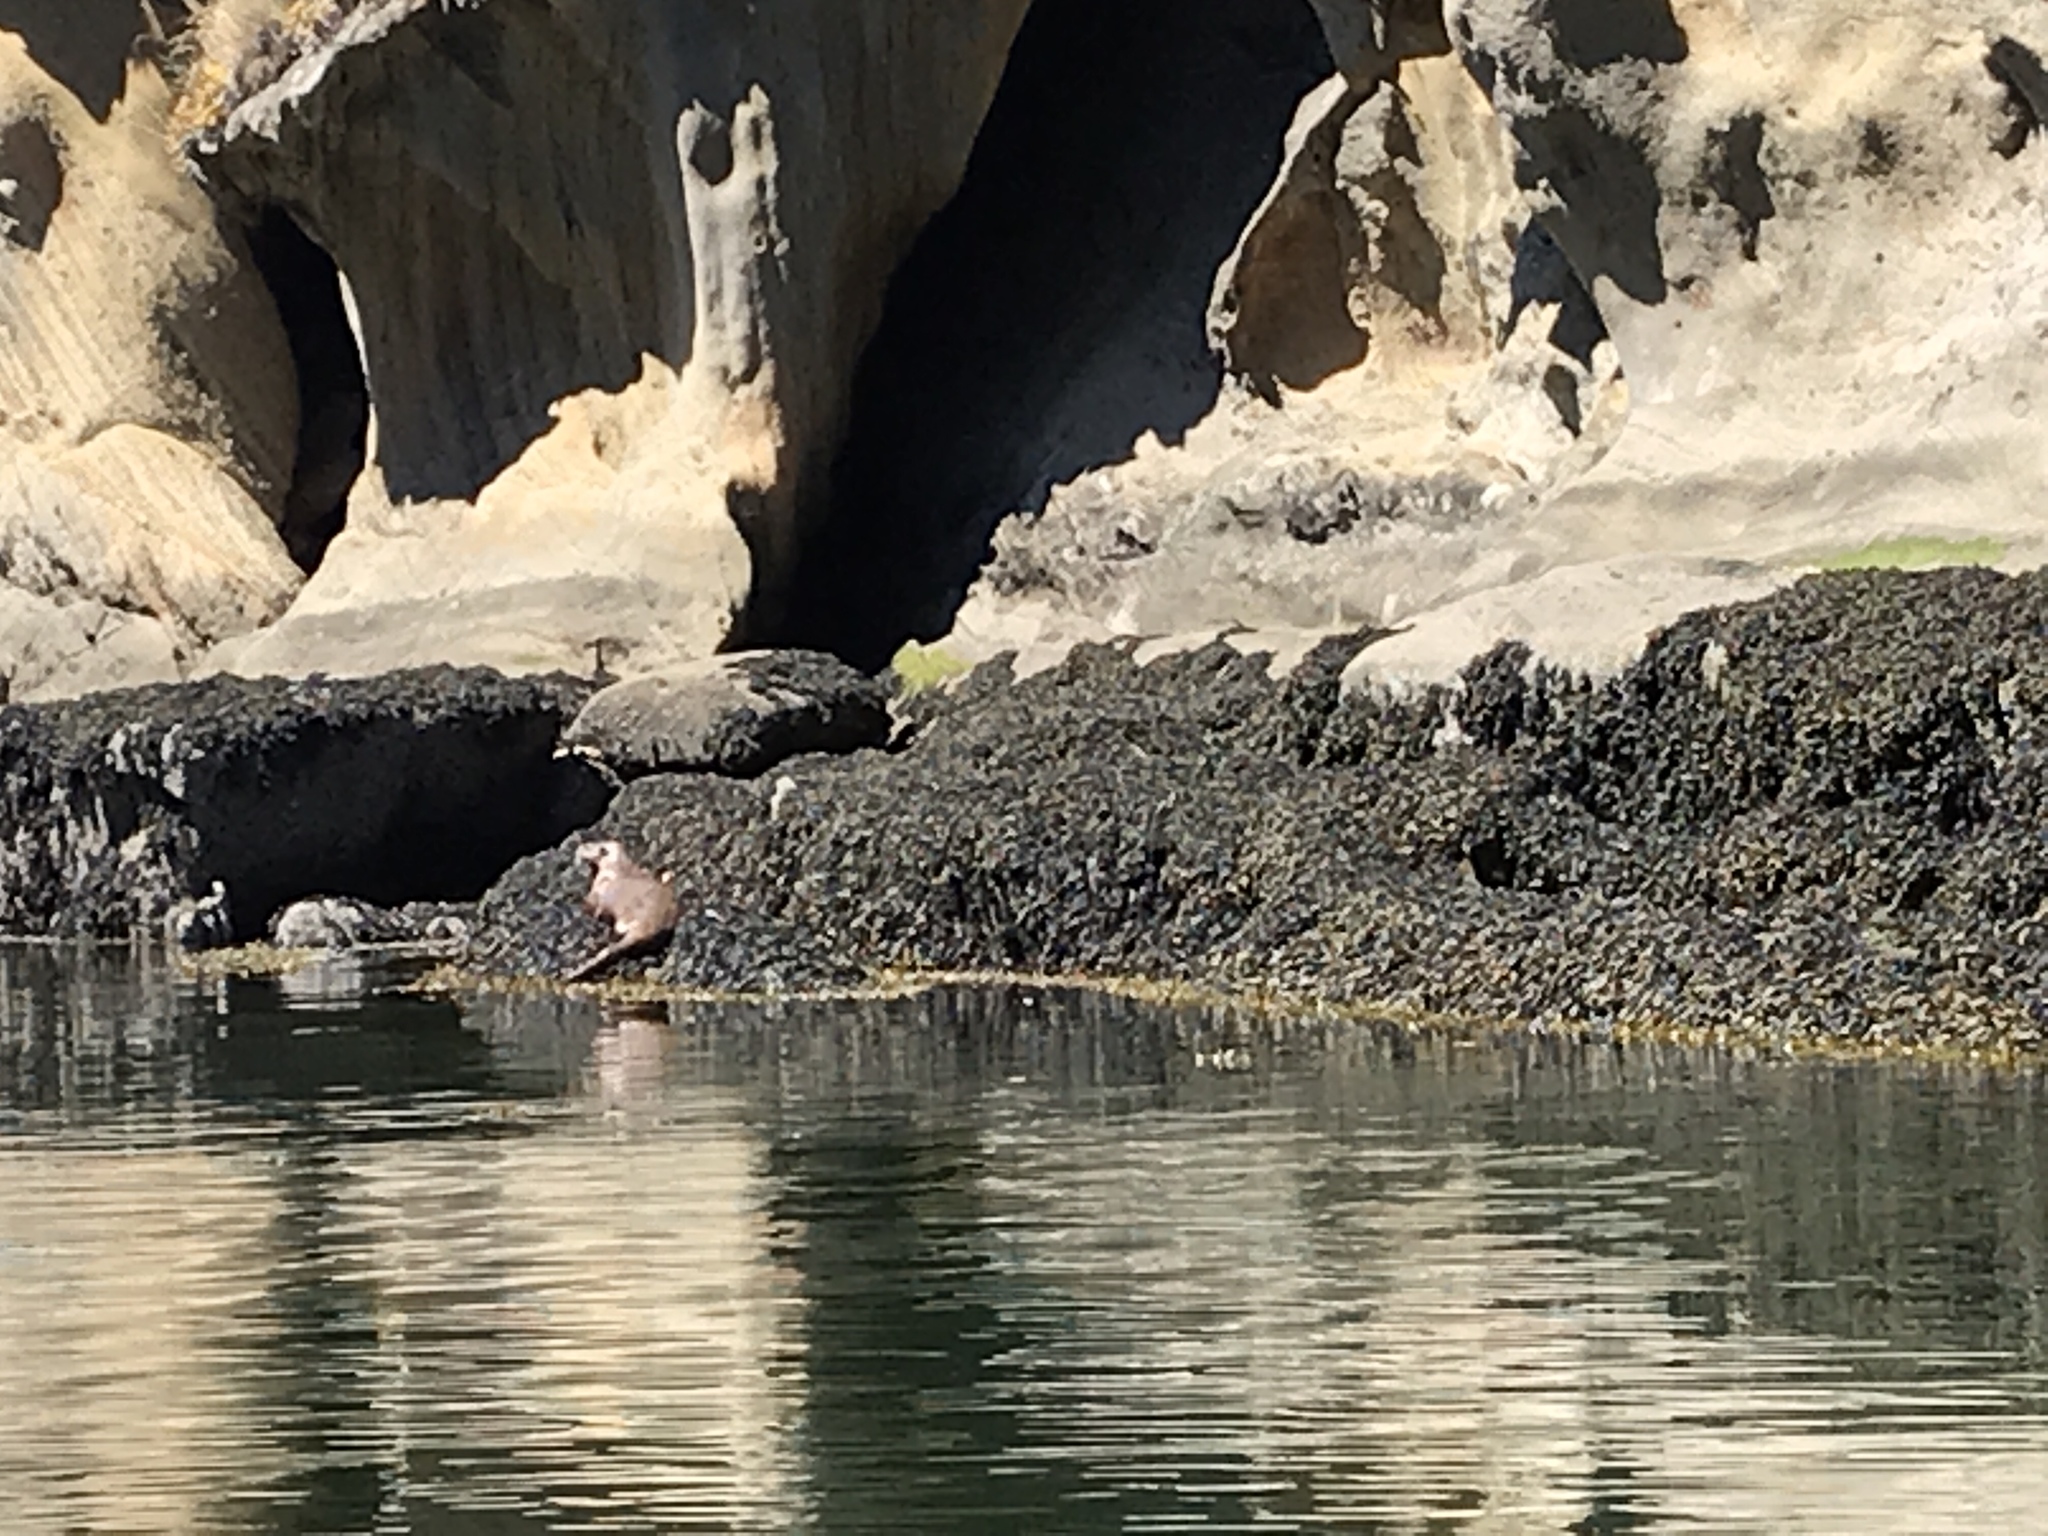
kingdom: Animalia
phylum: Chordata
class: Mammalia
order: Carnivora
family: Mustelidae
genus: Lontra
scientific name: Lontra canadensis
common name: North american river otter
